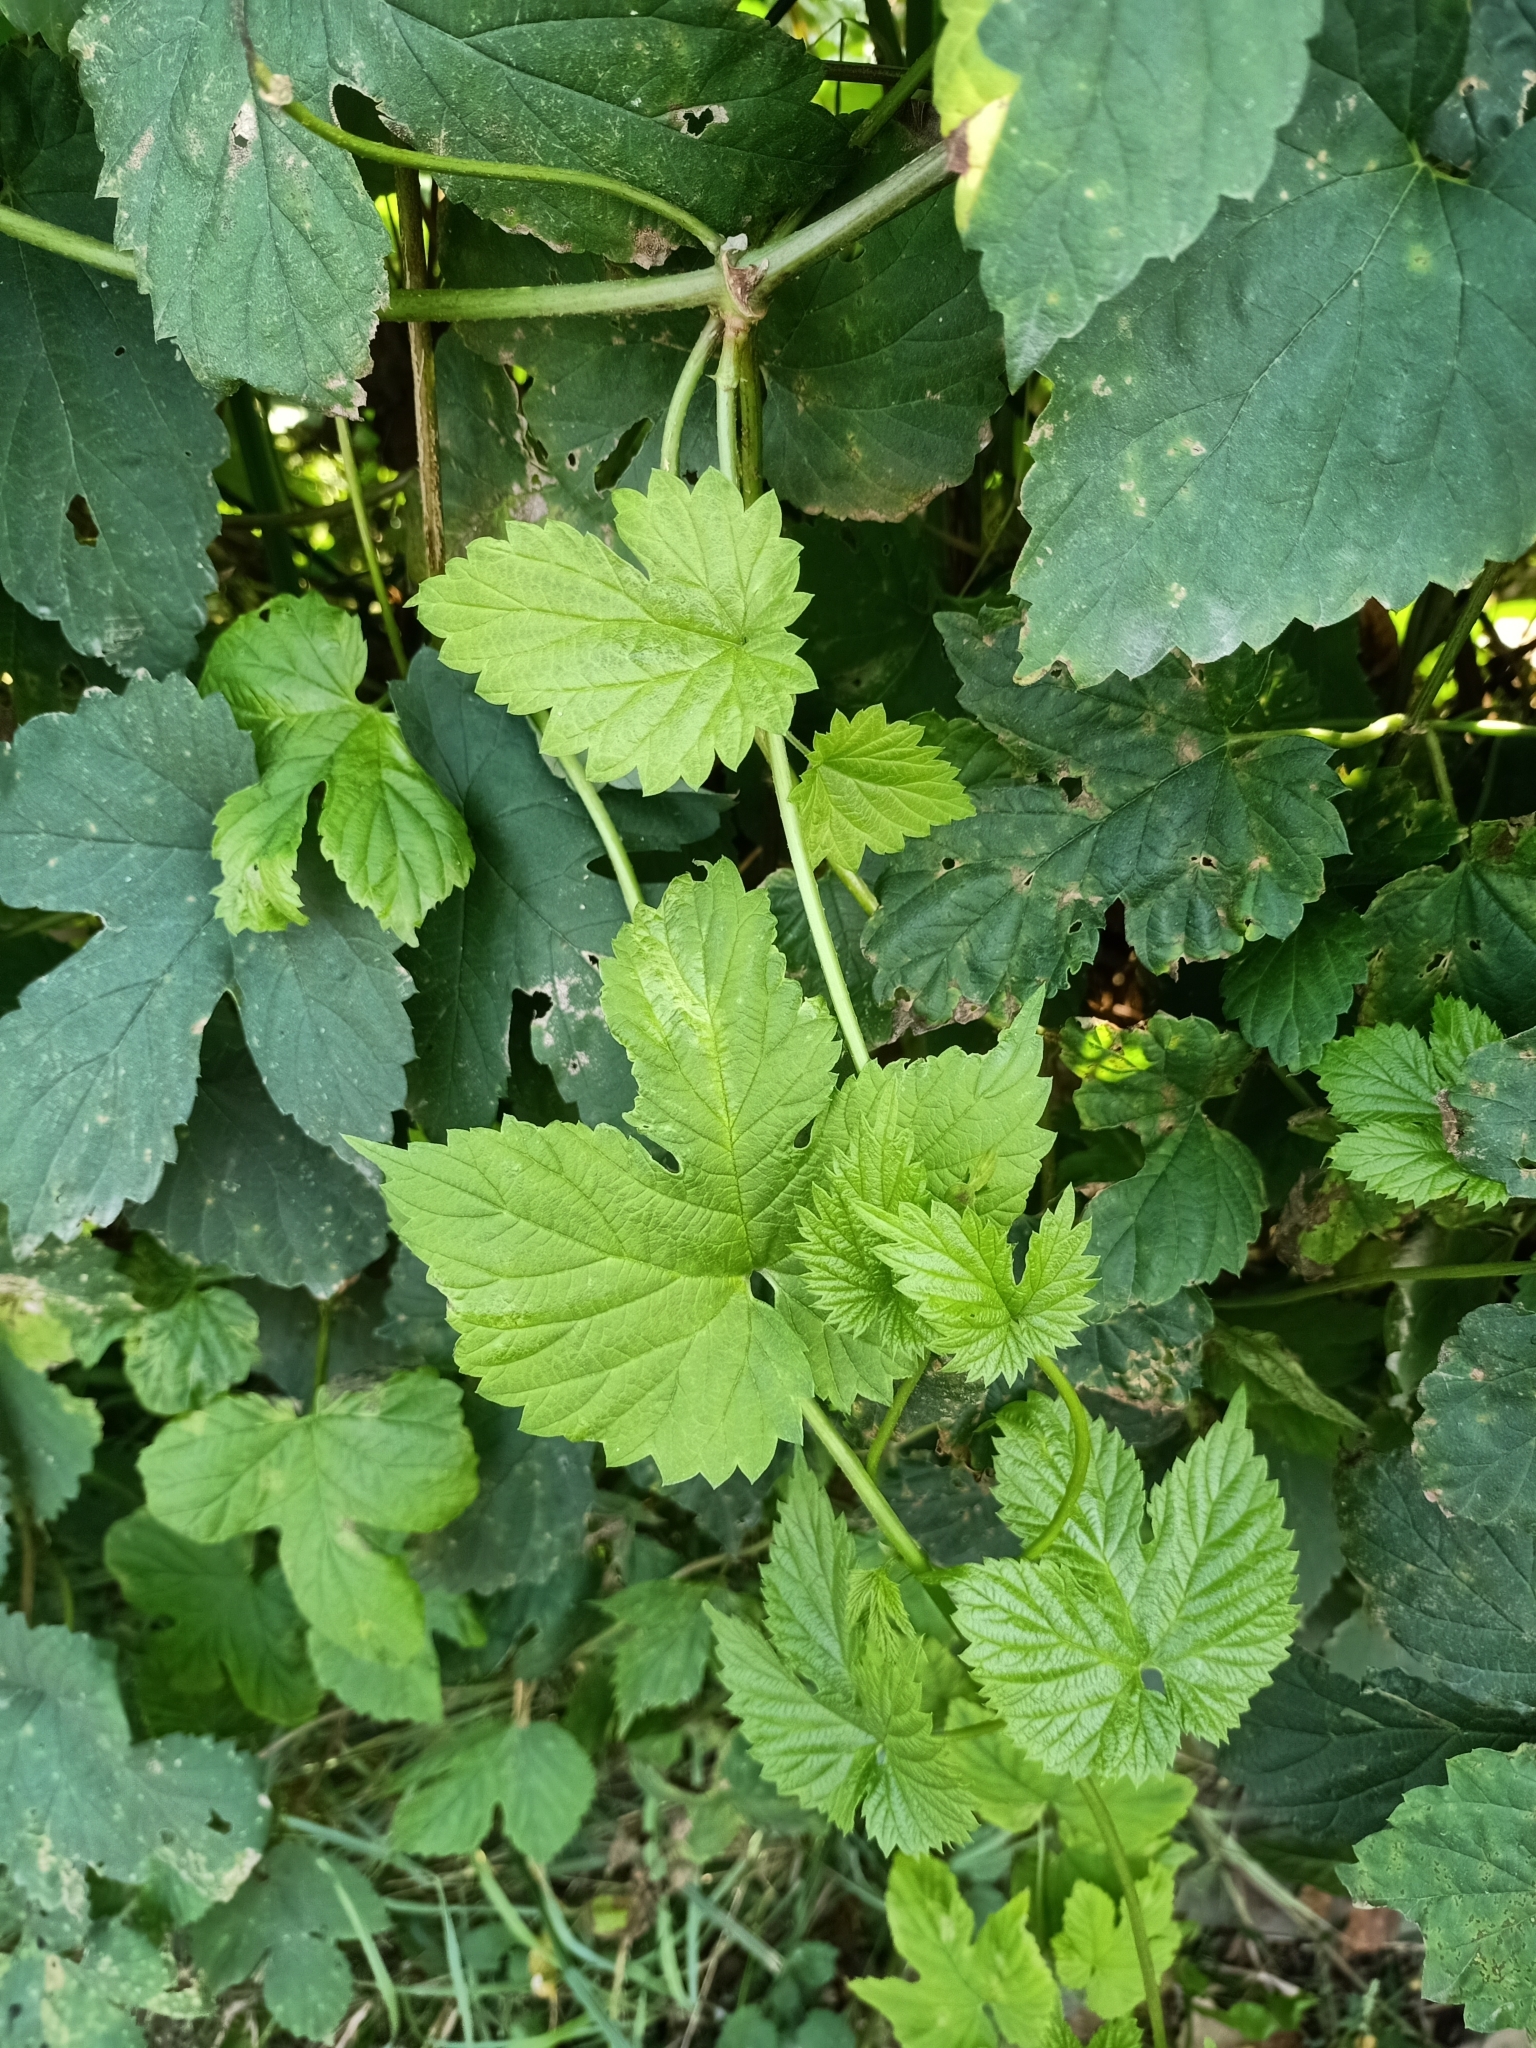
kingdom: Plantae
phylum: Tracheophyta
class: Magnoliopsida
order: Rosales
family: Cannabaceae
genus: Humulus
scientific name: Humulus lupulus
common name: Hop
